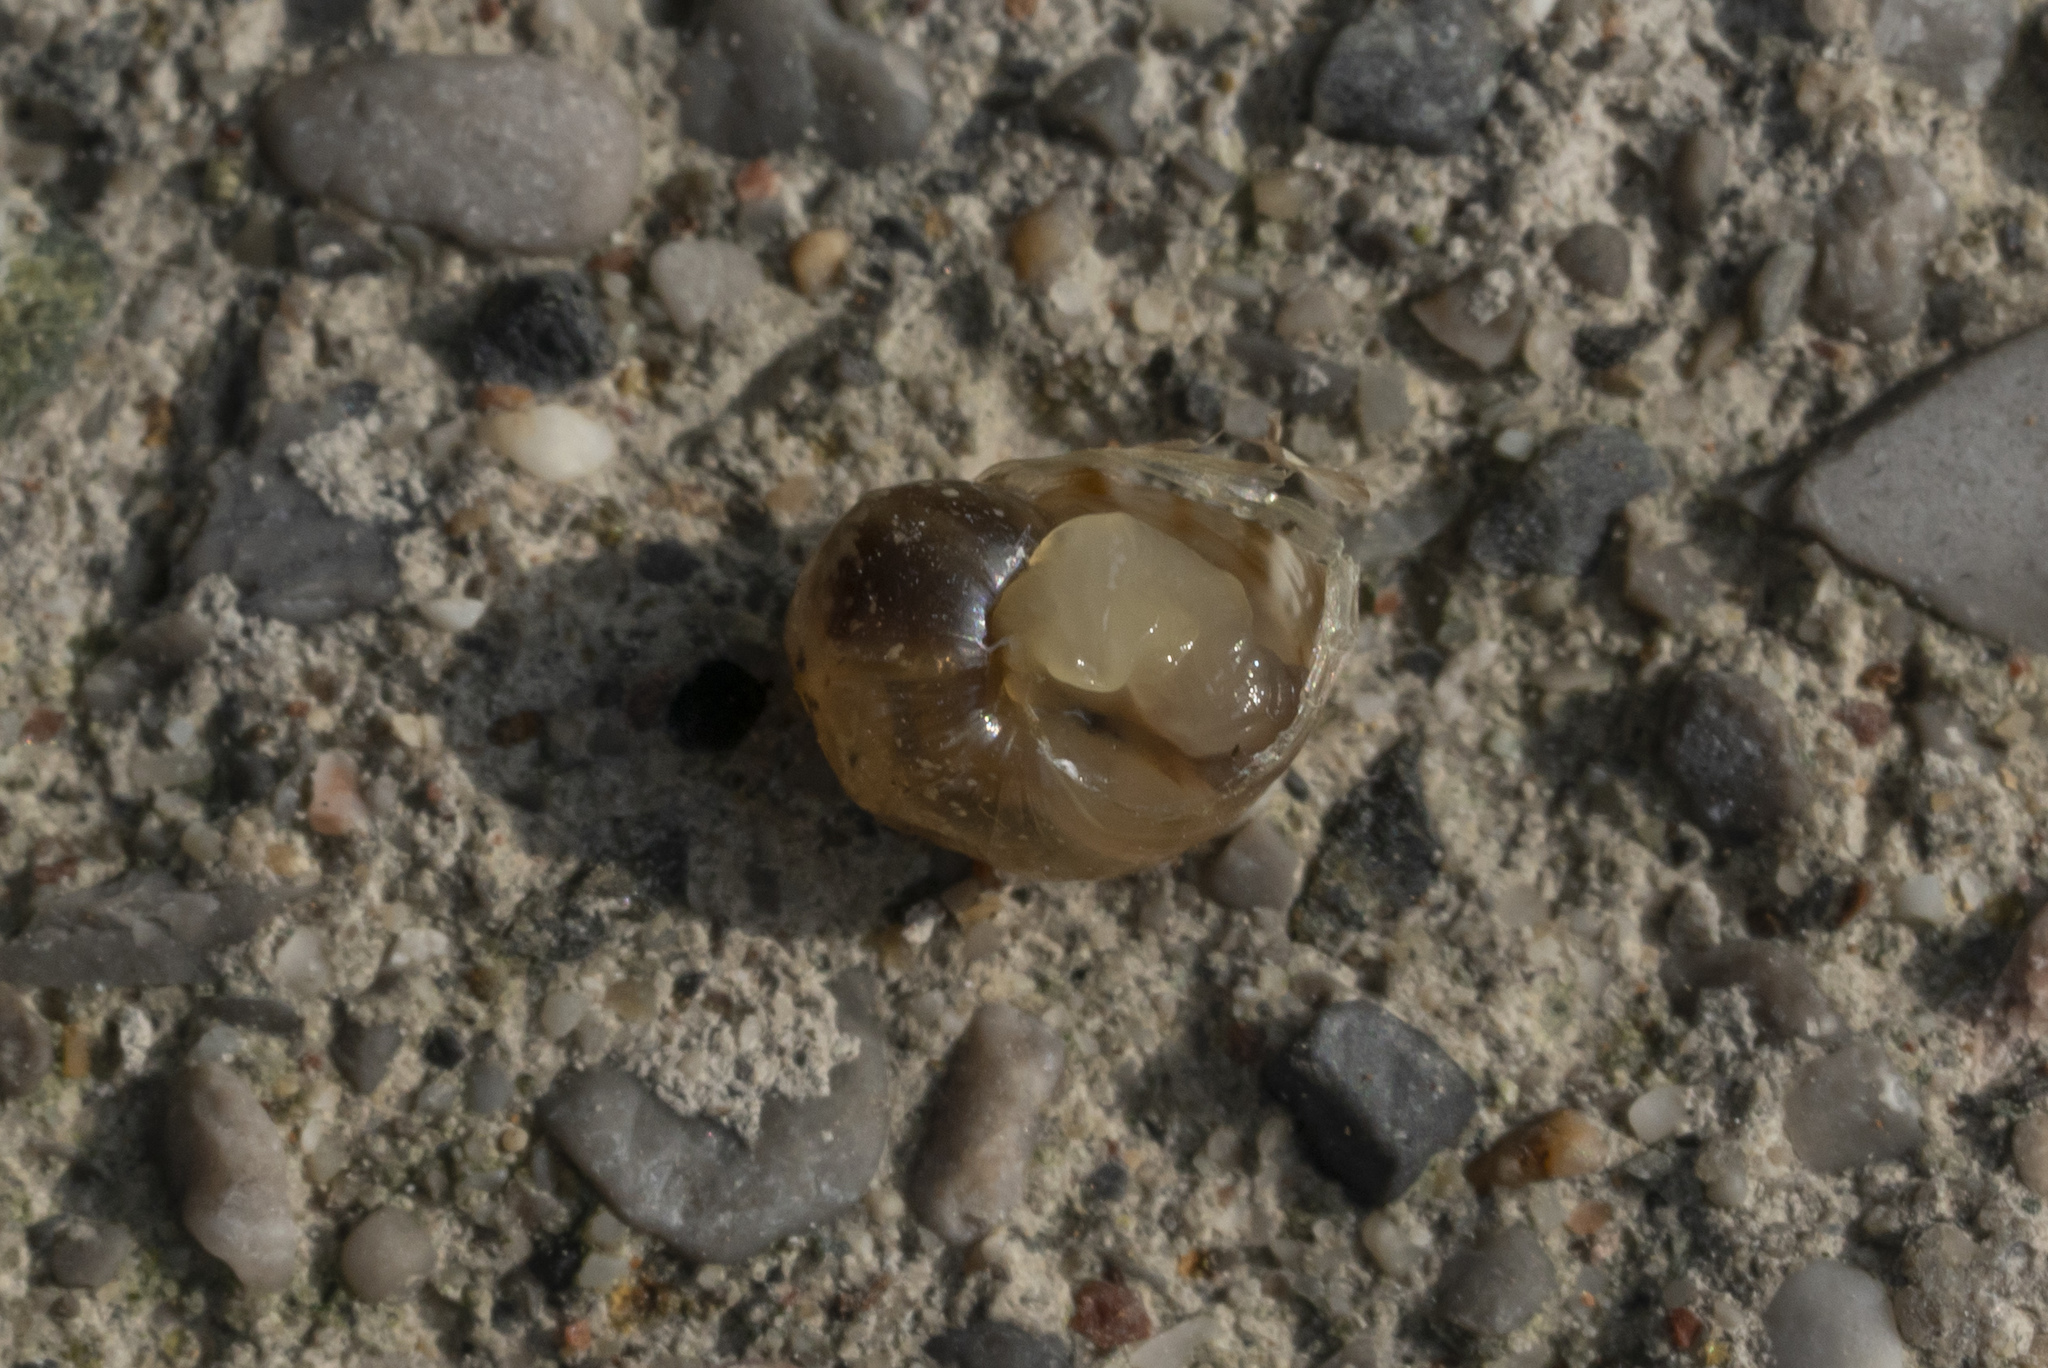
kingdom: Animalia
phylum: Mollusca
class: Gastropoda
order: Stylommatophora
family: Helicidae
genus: Cornu
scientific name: Cornu aspersum
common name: Brown garden snail
